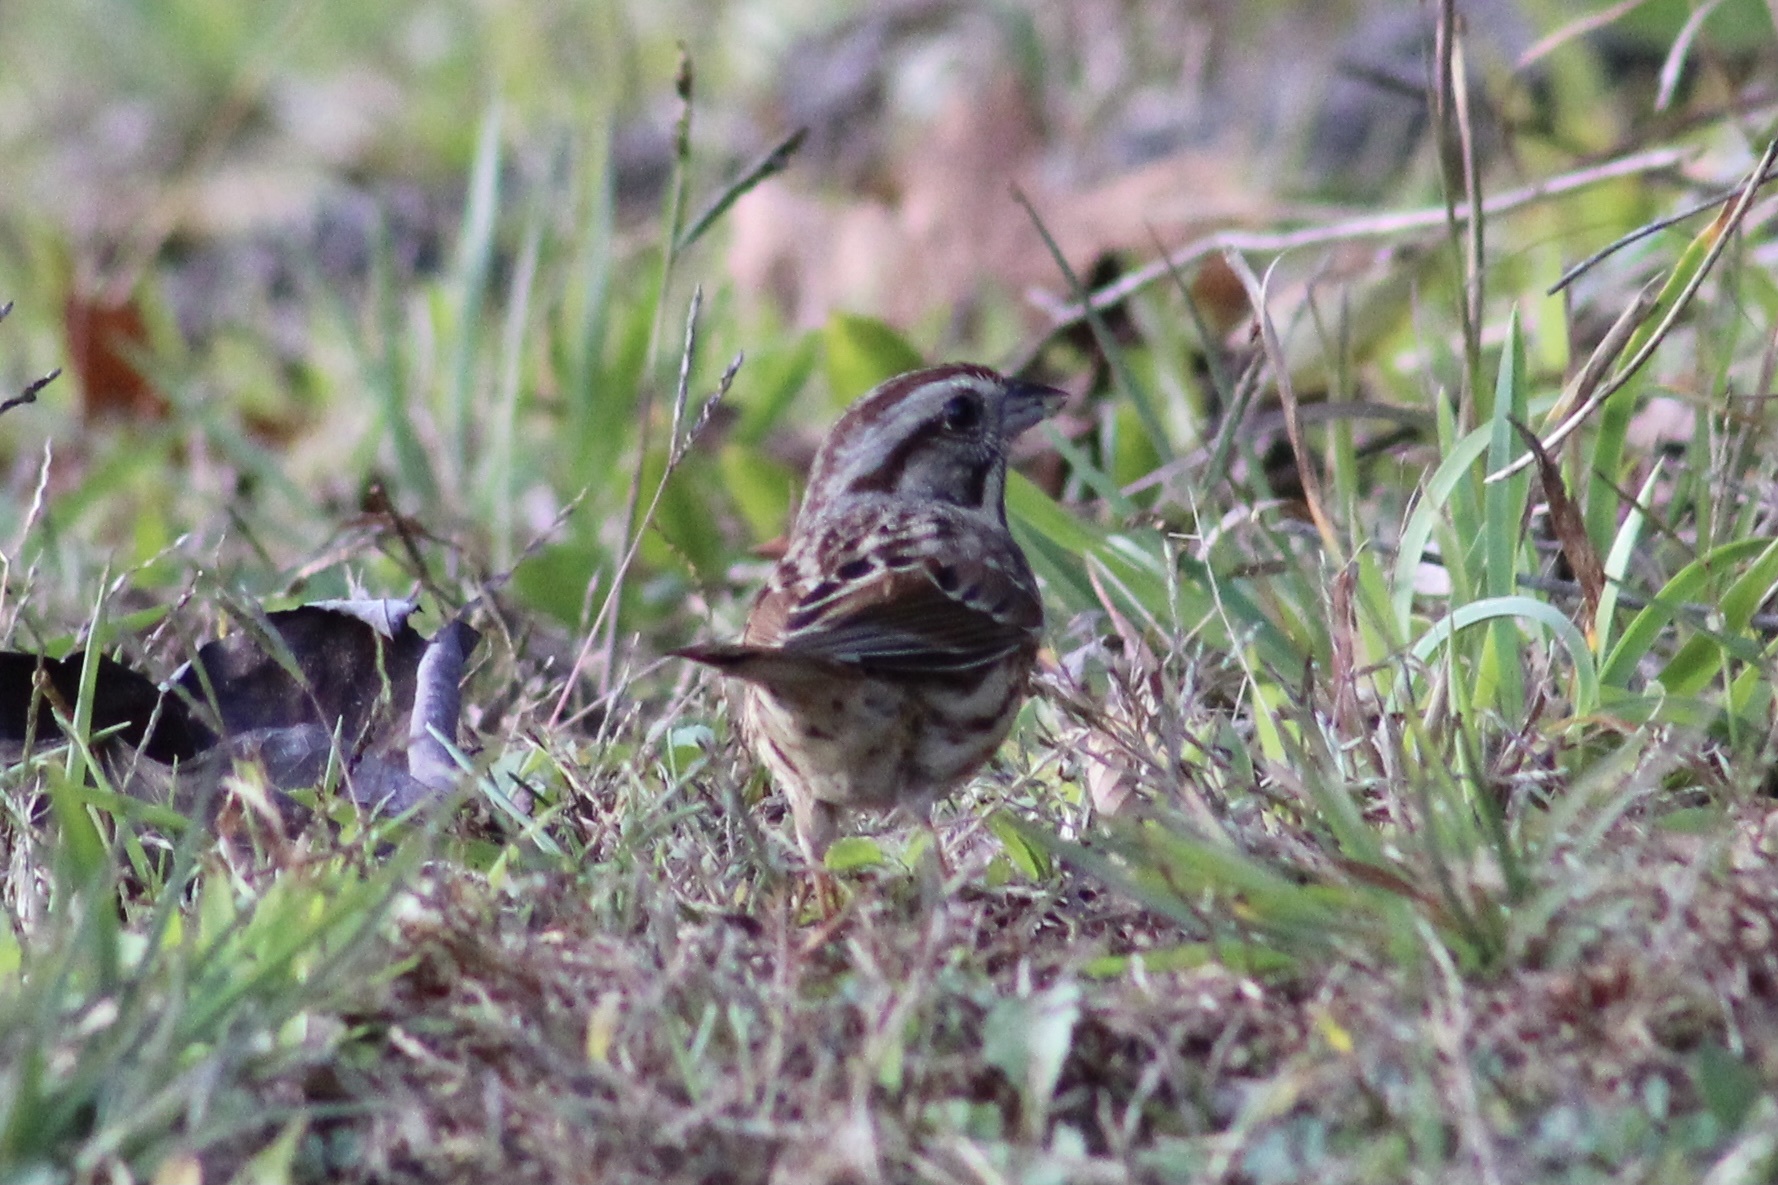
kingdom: Animalia
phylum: Chordata
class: Aves
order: Passeriformes
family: Passerellidae
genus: Melospiza
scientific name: Melospiza melodia
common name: Song sparrow
